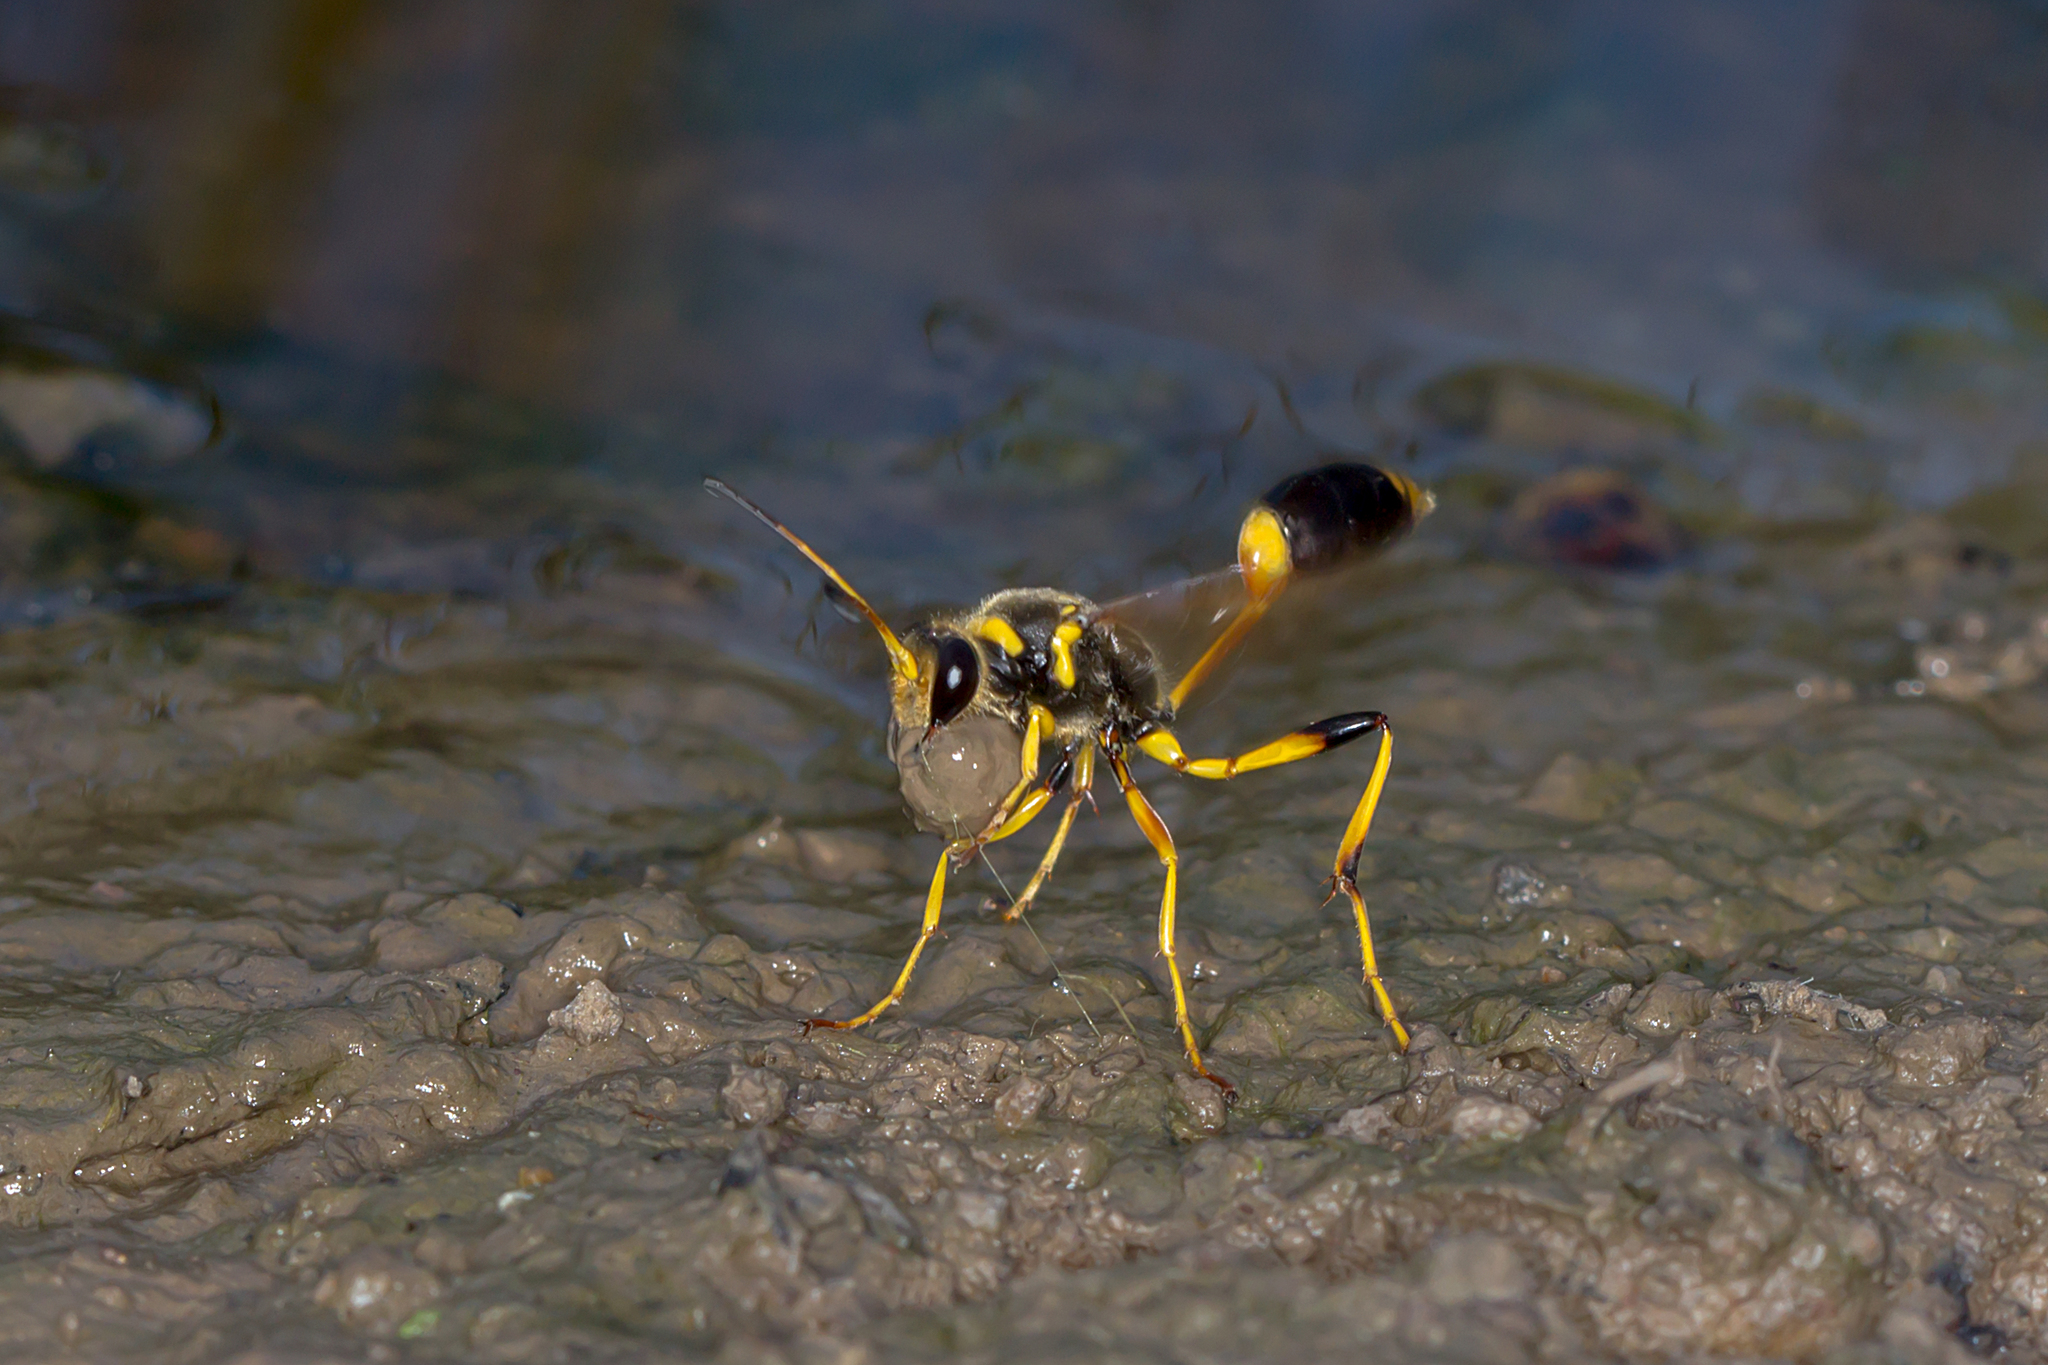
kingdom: Animalia
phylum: Arthropoda
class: Insecta
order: Hymenoptera
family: Sphecidae
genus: Sceliphron
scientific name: Sceliphron laetum
